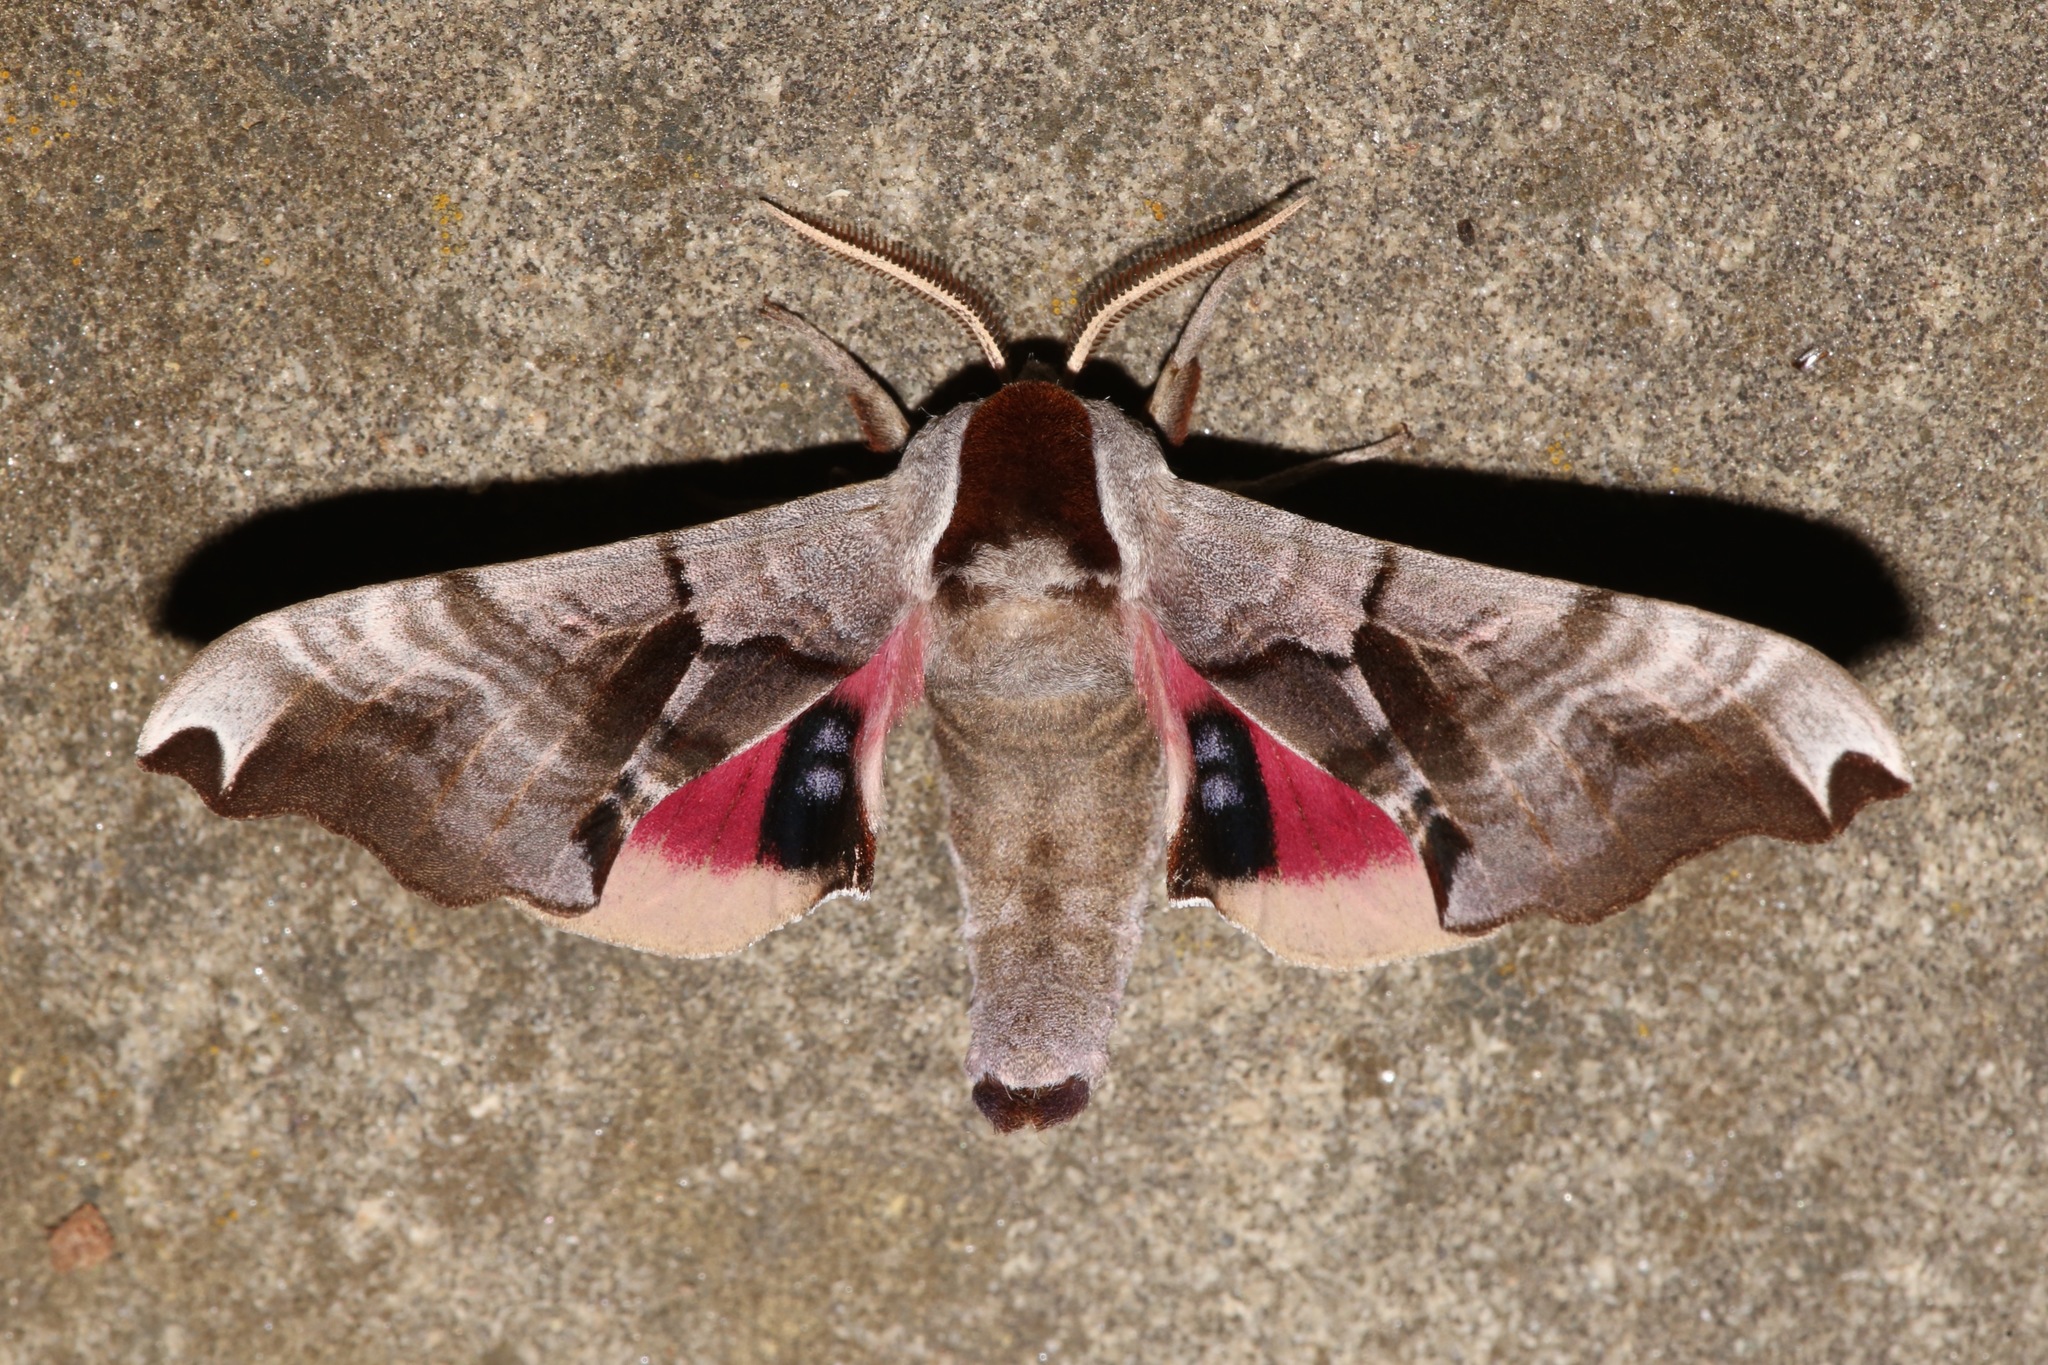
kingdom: Animalia
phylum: Arthropoda
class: Insecta
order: Lepidoptera
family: Sphingidae
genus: Smerinthus
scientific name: Smerinthus jamaicensis
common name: Twin spotted sphinx
